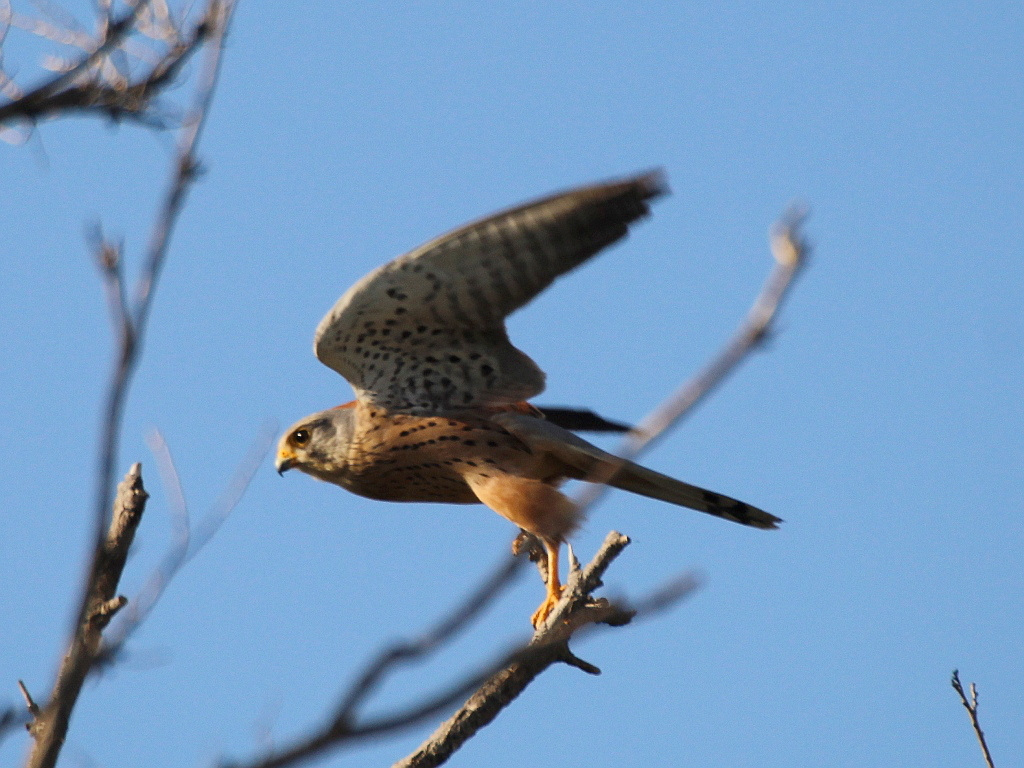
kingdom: Animalia
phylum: Chordata
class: Aves
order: Falconiformes
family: Falconidae
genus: Falco
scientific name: Falco tinnunculus
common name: Common kestrel
